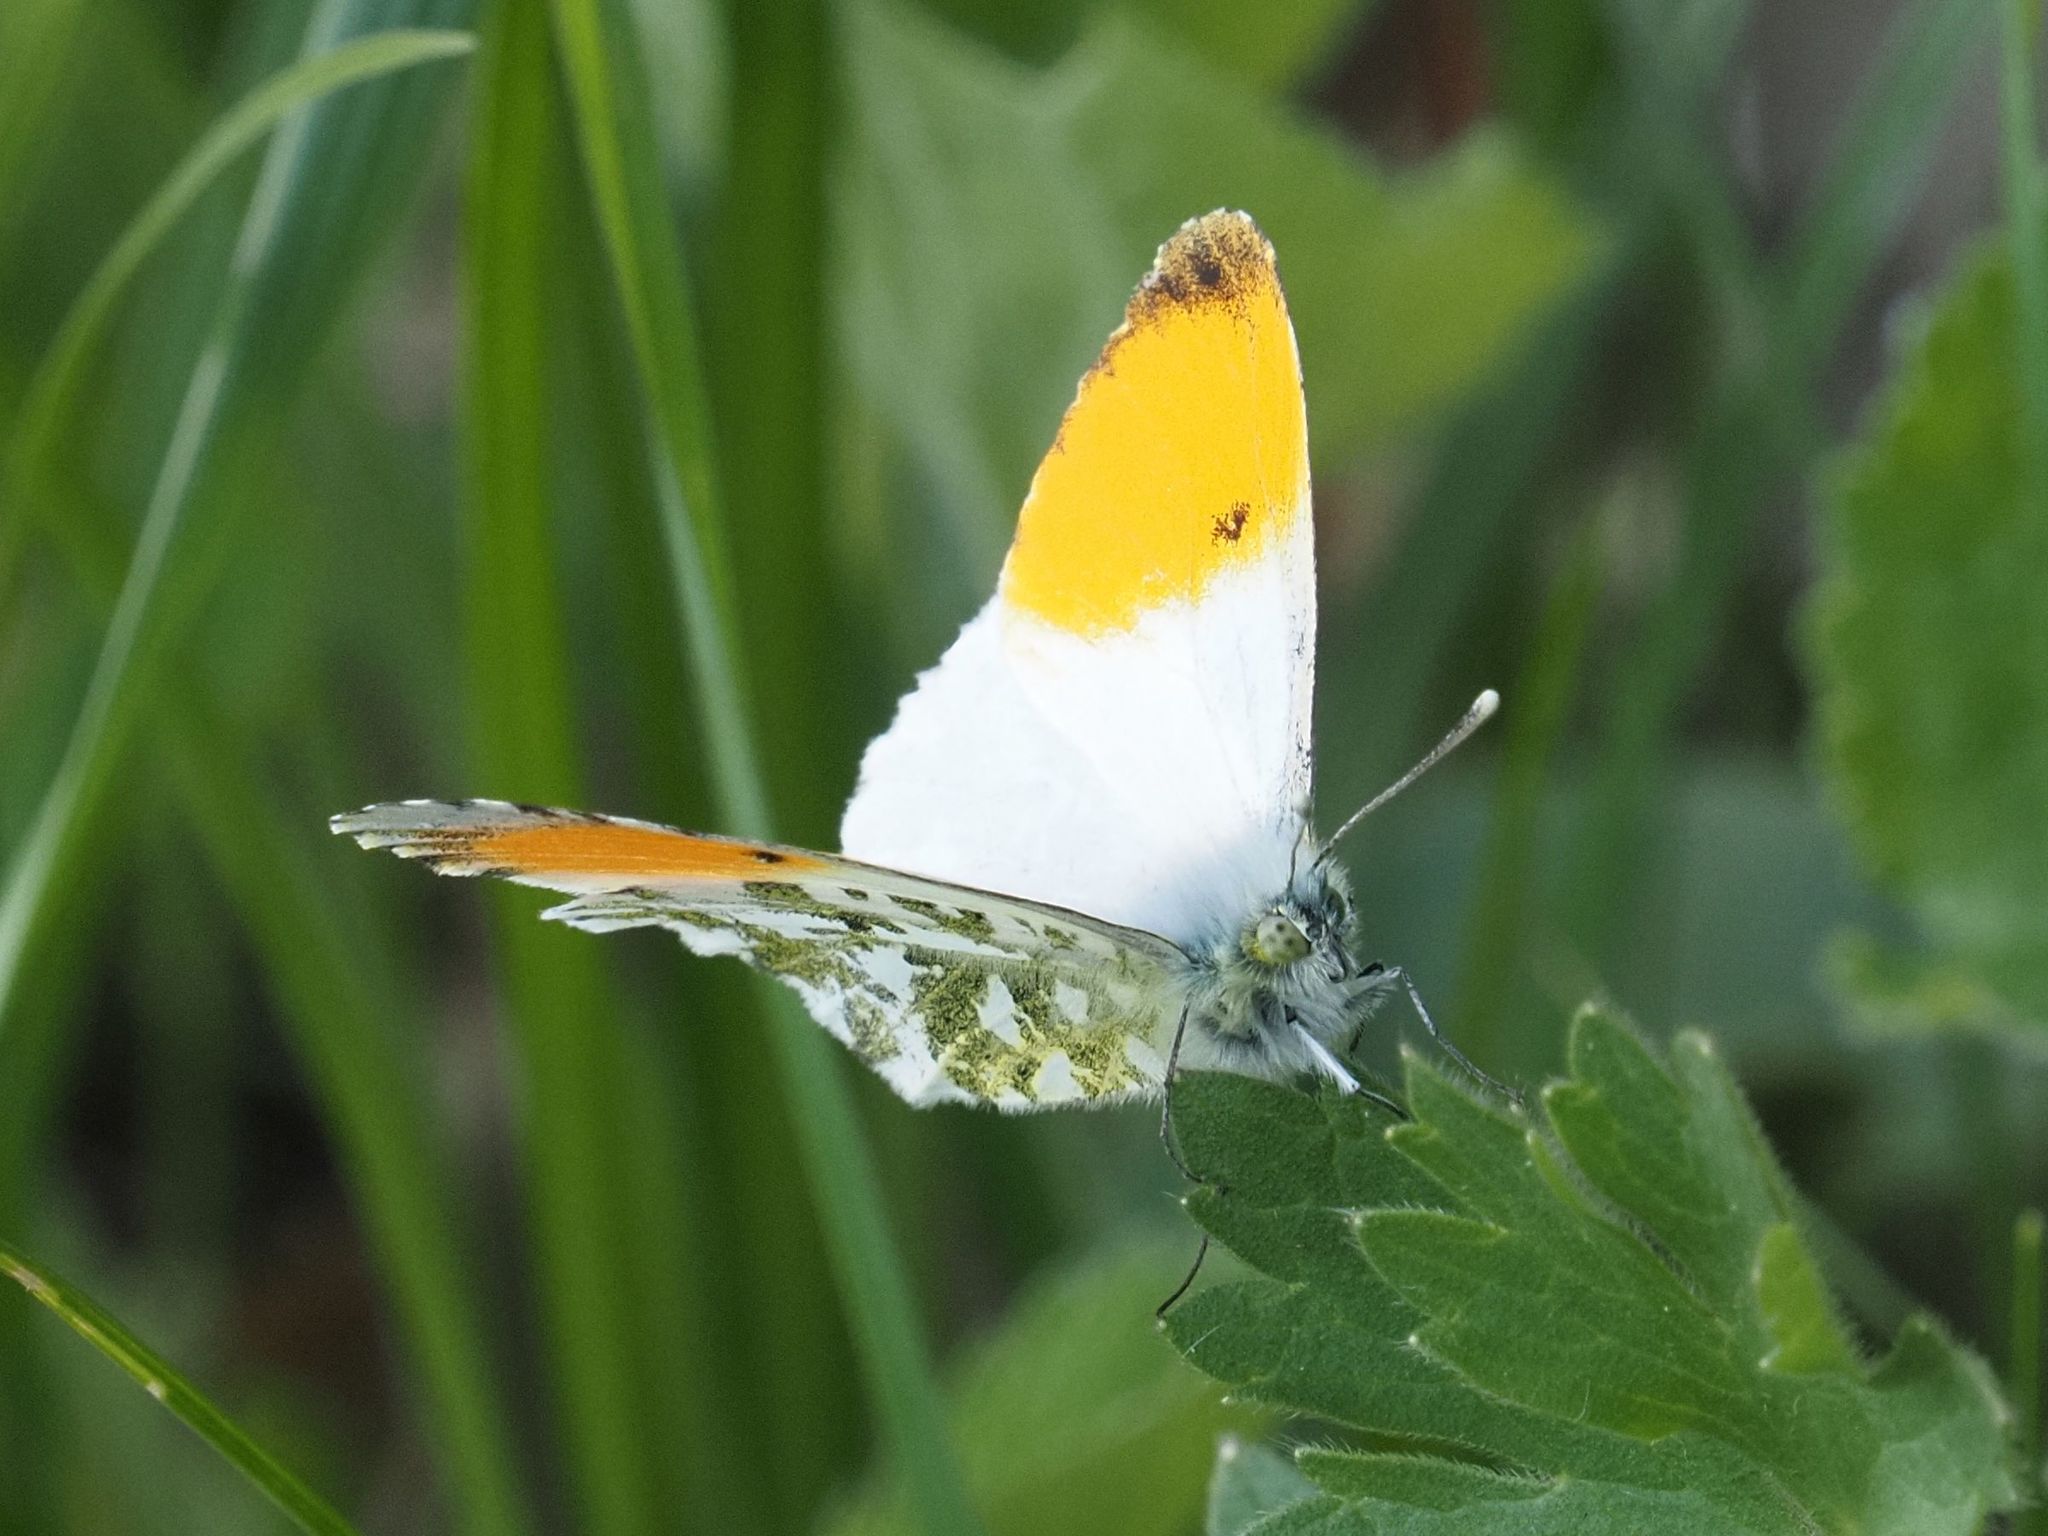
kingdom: Animalia
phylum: Arthropoda
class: Insecta
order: Lepidoptera
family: Pieridae
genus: Anthocharis
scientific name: Anthocharis cardamines
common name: Orange-tip
